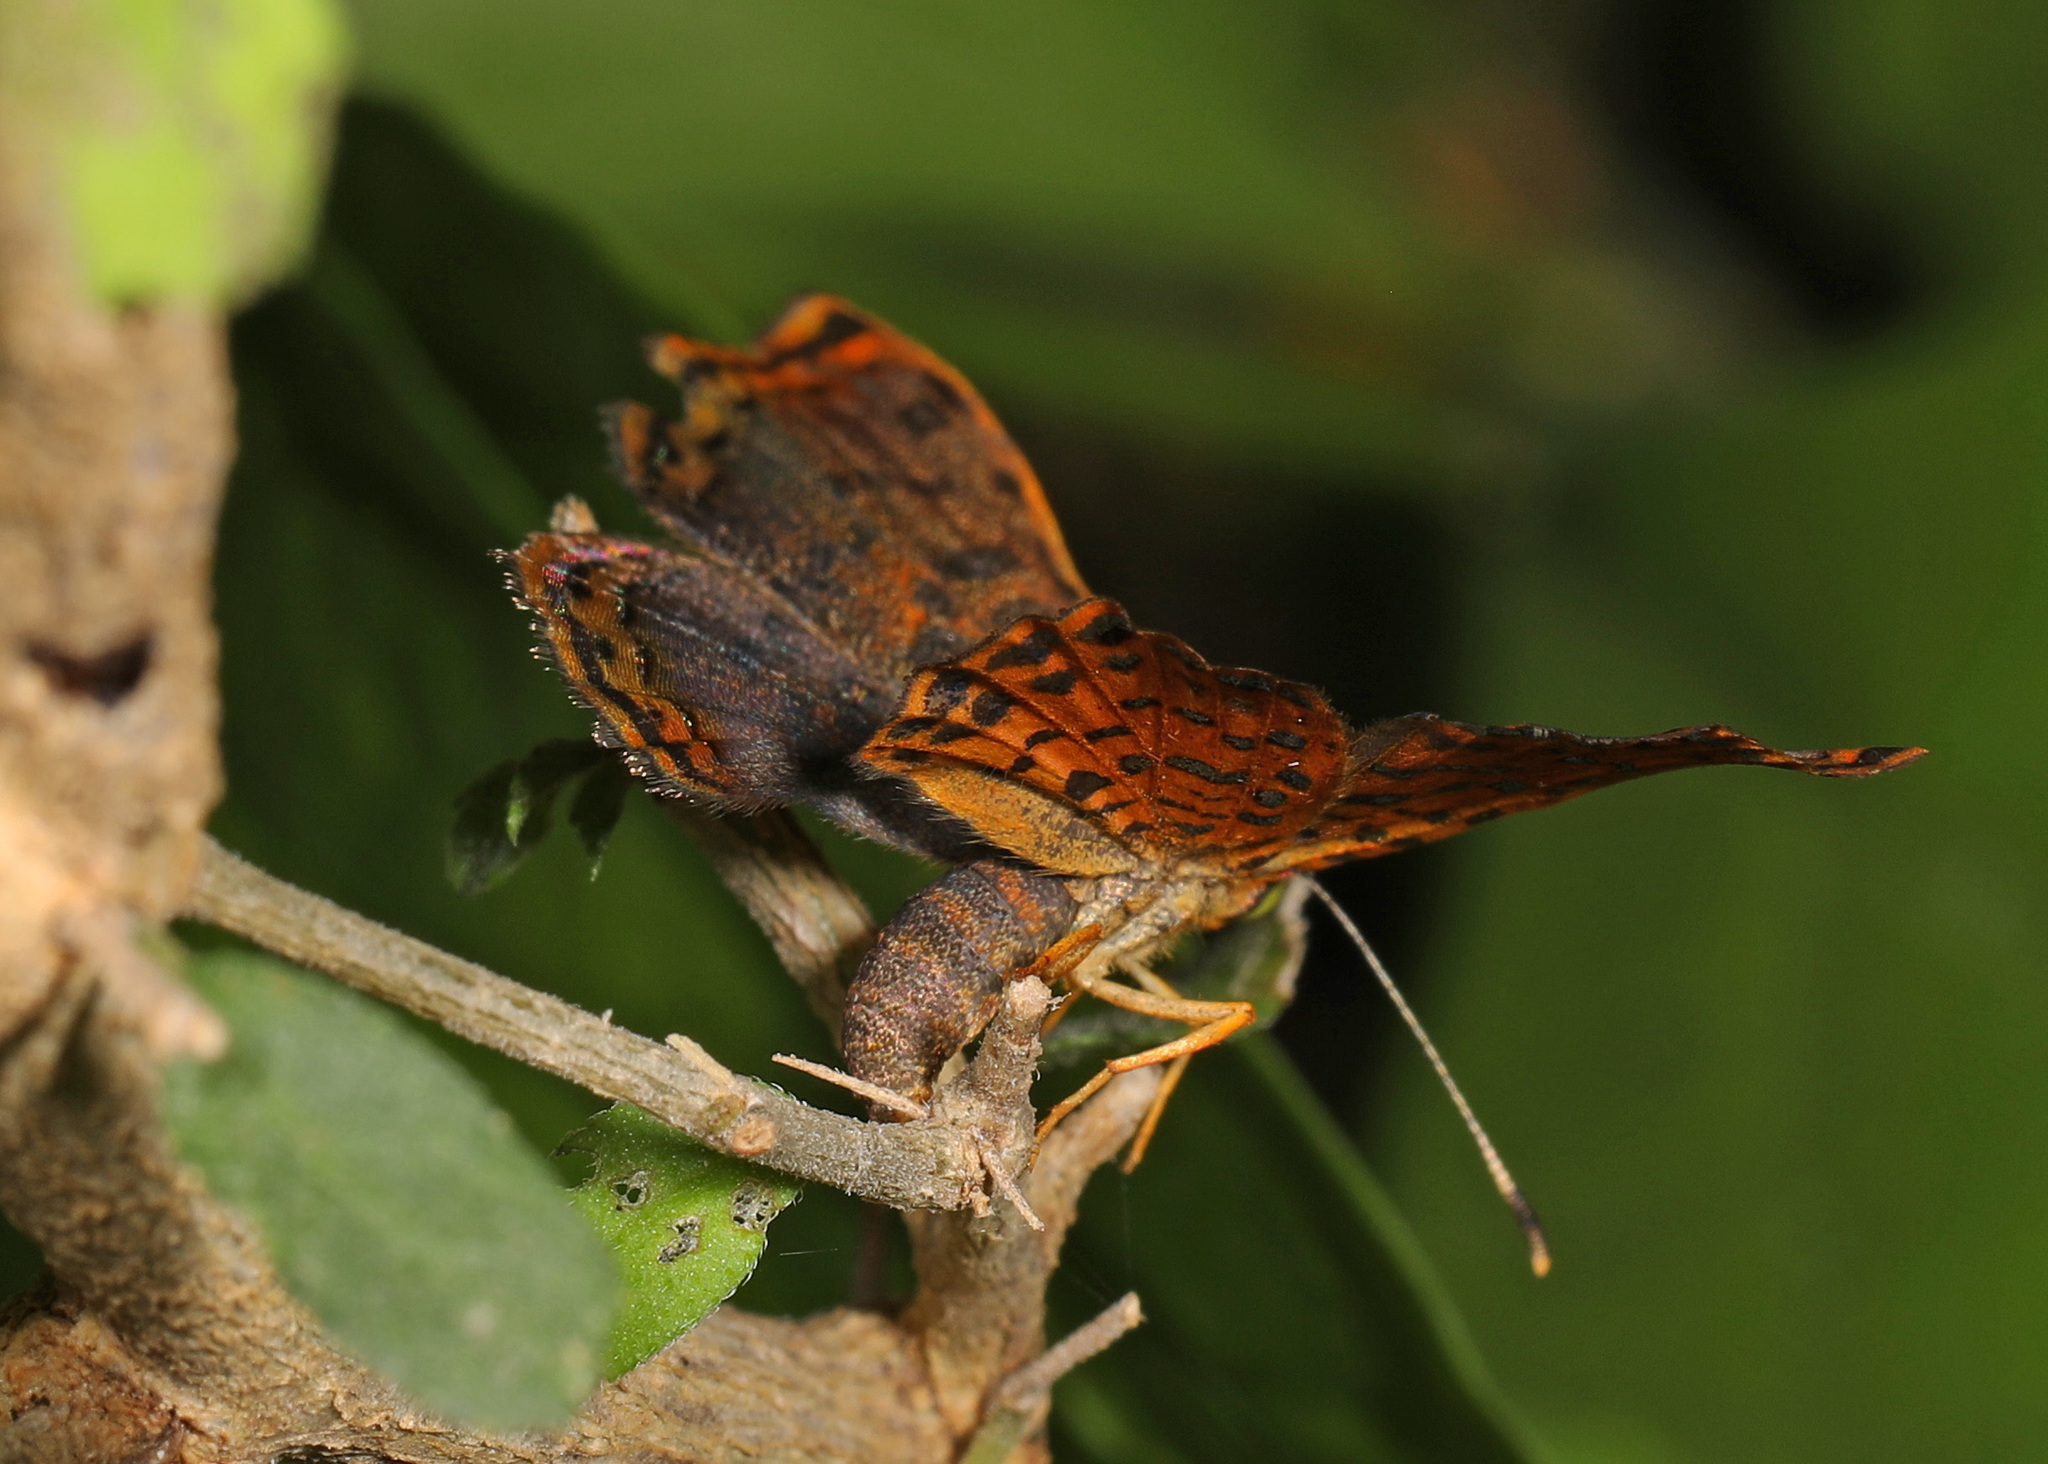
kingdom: Animalia
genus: Caria
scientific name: Caria ino
